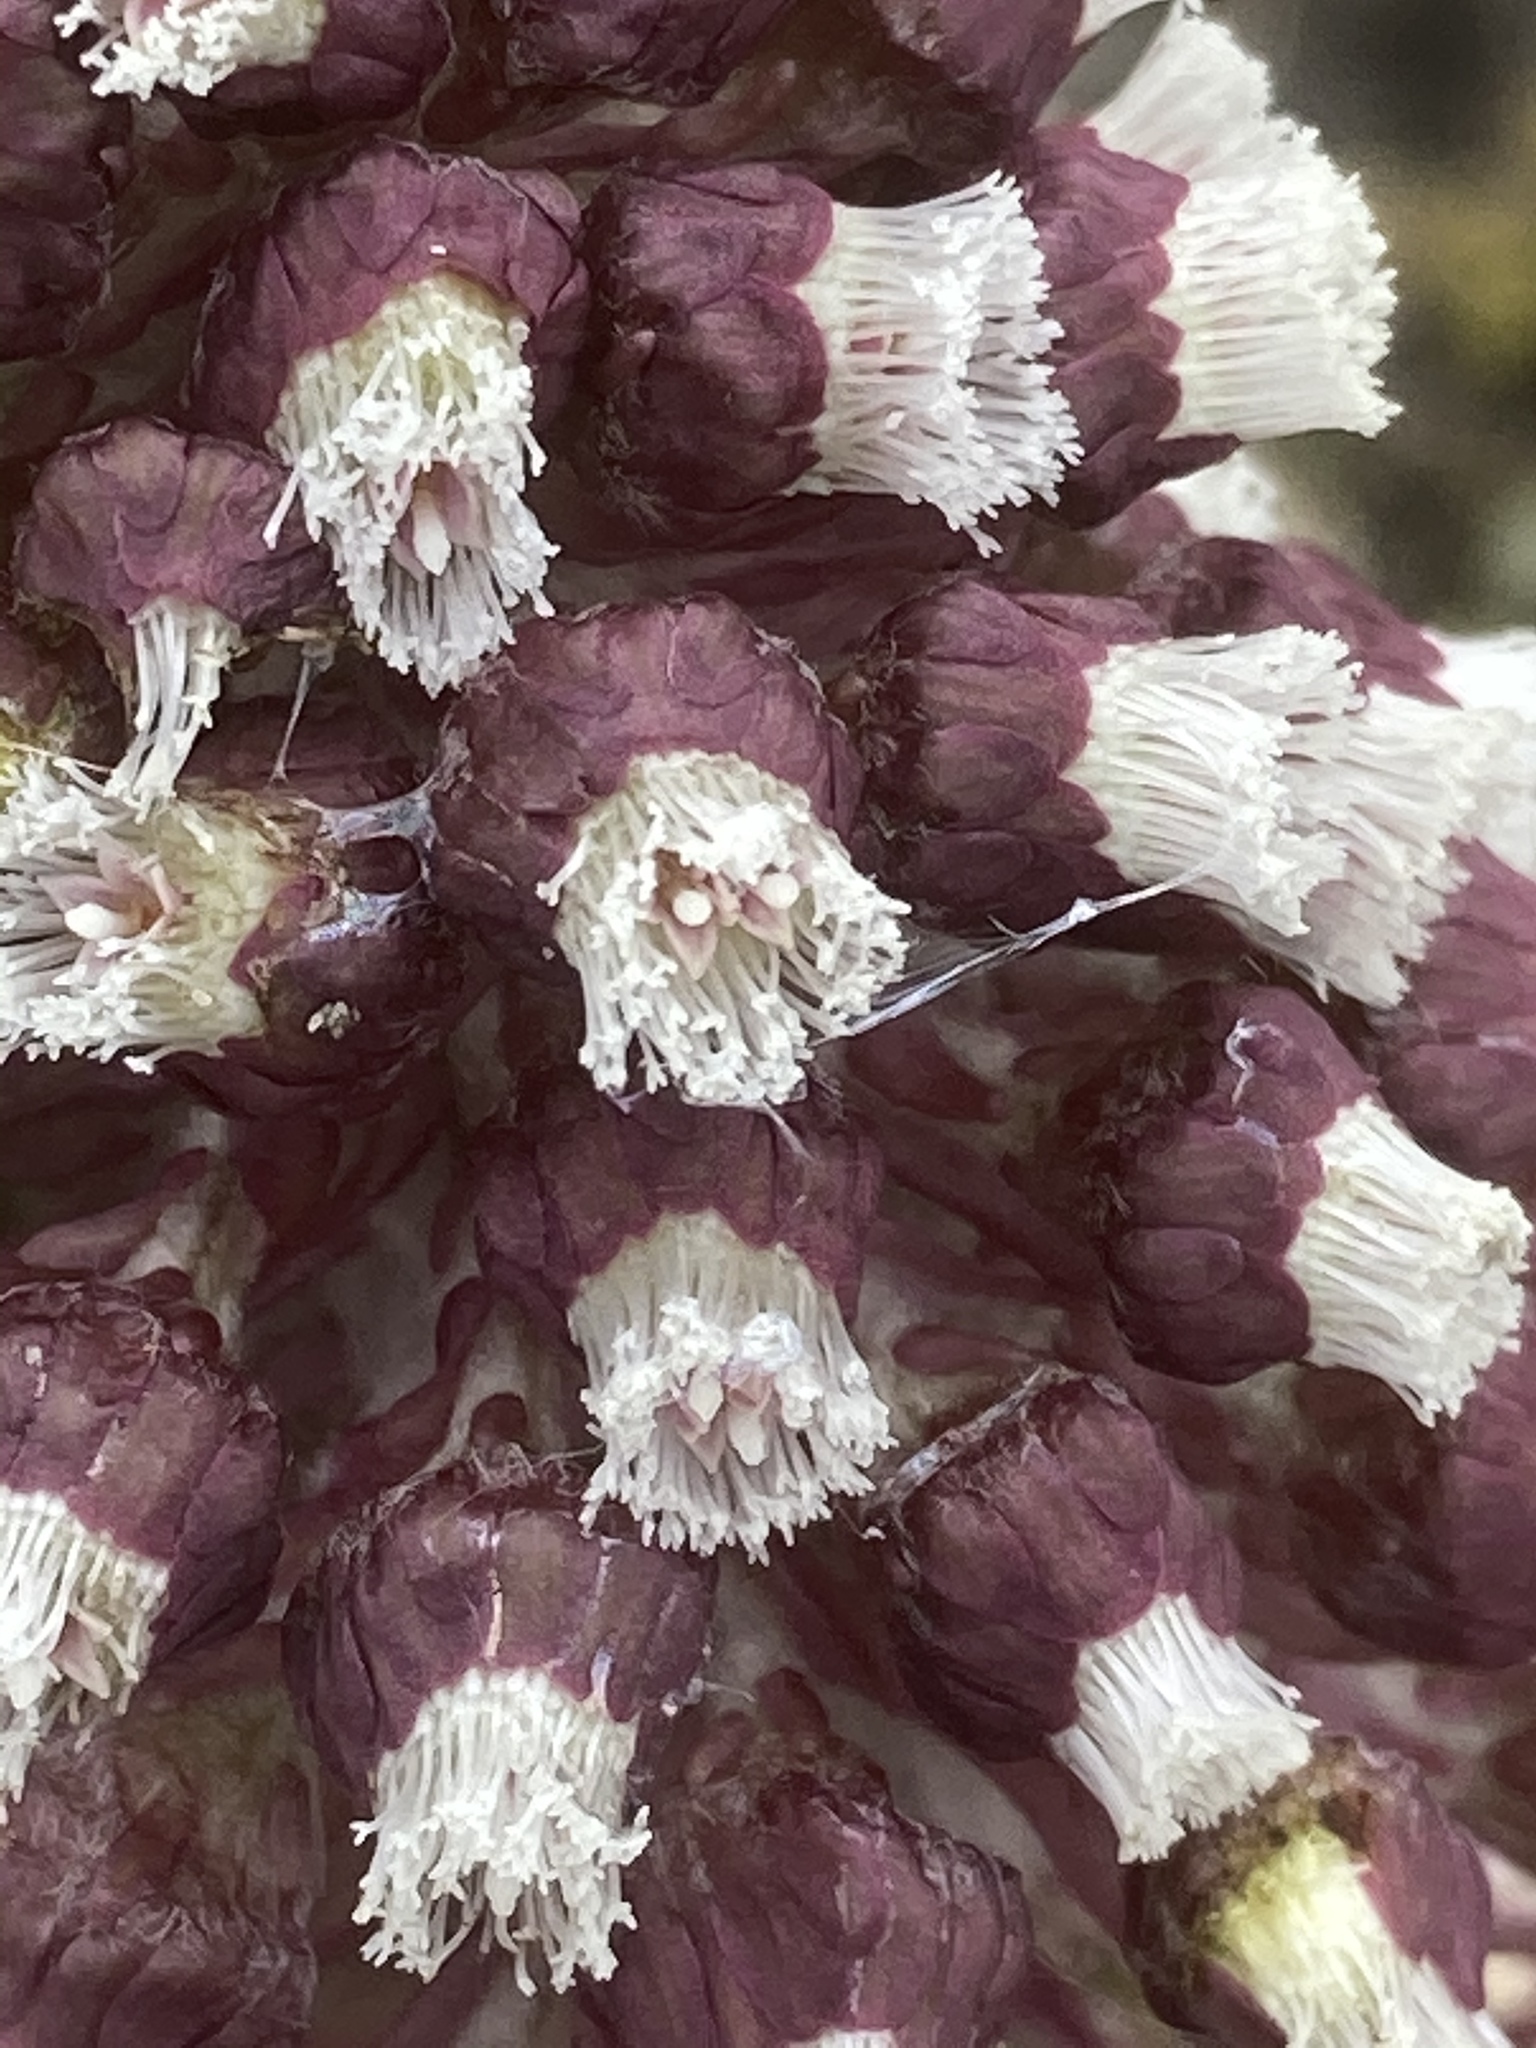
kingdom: Plantae
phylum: Tracheophyta
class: Magnoliopsida
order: Asterales
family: Asteraceae
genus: Petasites
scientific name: Petasites hybridus
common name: Butterbur
